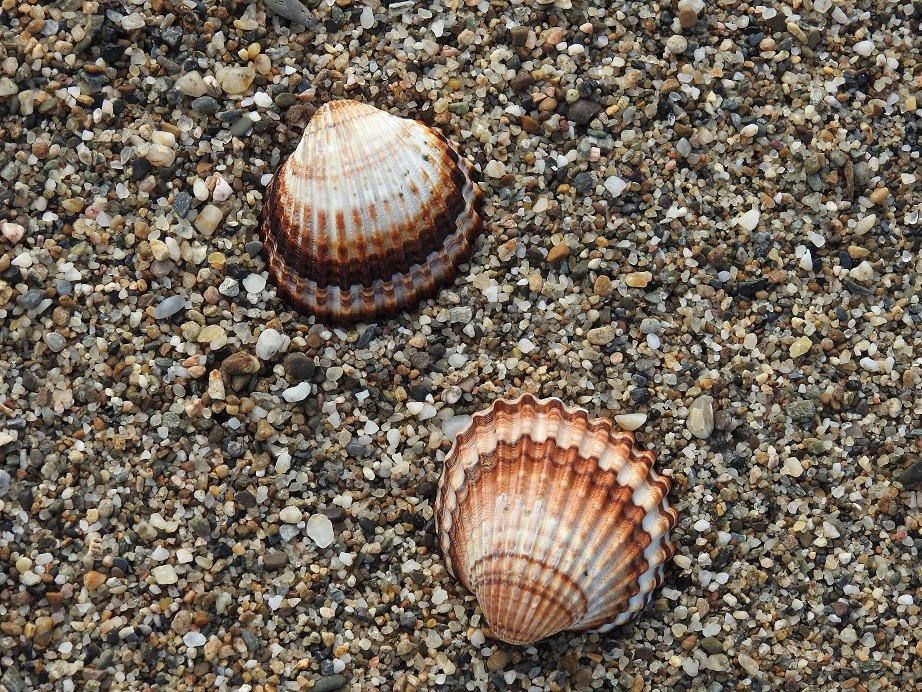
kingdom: Animalia
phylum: Mollusca
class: Bivalvia
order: Cardiida
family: Cardiidae
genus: Acanthocardia
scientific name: Acanthocardia tuberculata
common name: Rough cockle
